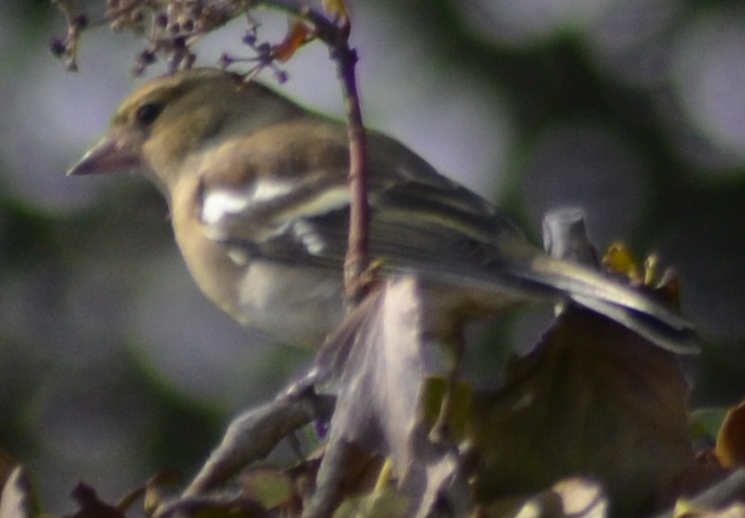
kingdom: Animalia
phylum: Chordata
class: Aves
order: Passeriformes
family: Fringillidae
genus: Fringilla
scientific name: Fringilla coelebs
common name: Common chaffinch
